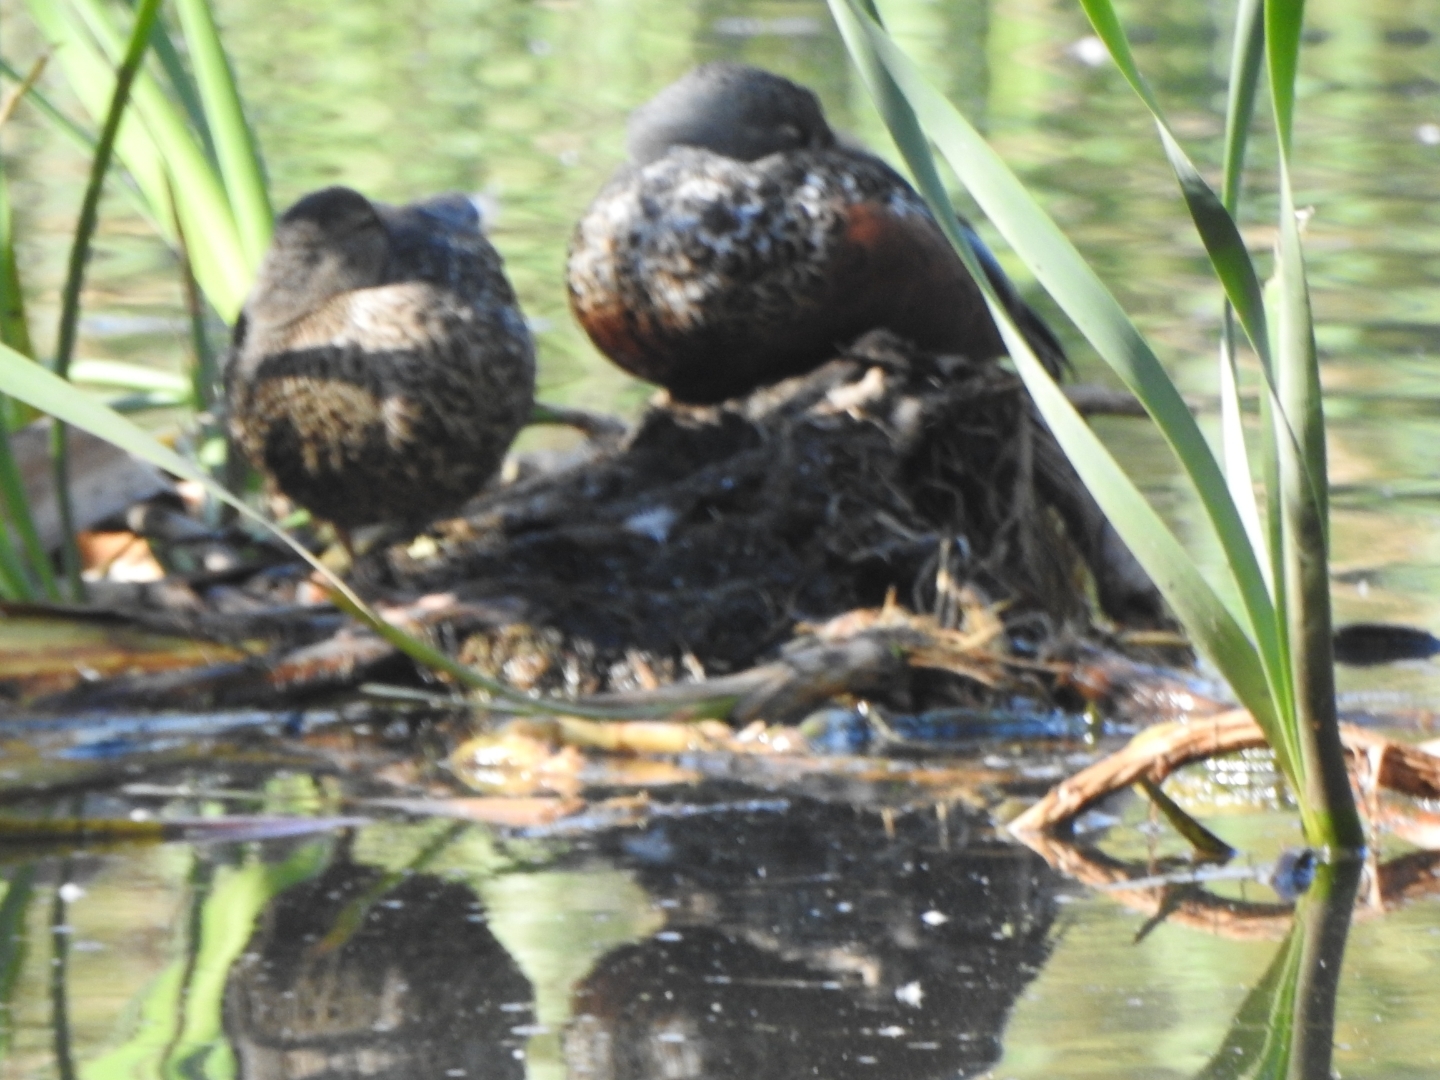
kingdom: Animalia
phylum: Chordata
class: Aves
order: Anseriformes
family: Anatidae
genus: Spatula
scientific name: Spatula rhynchotis
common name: Australian shoveler
